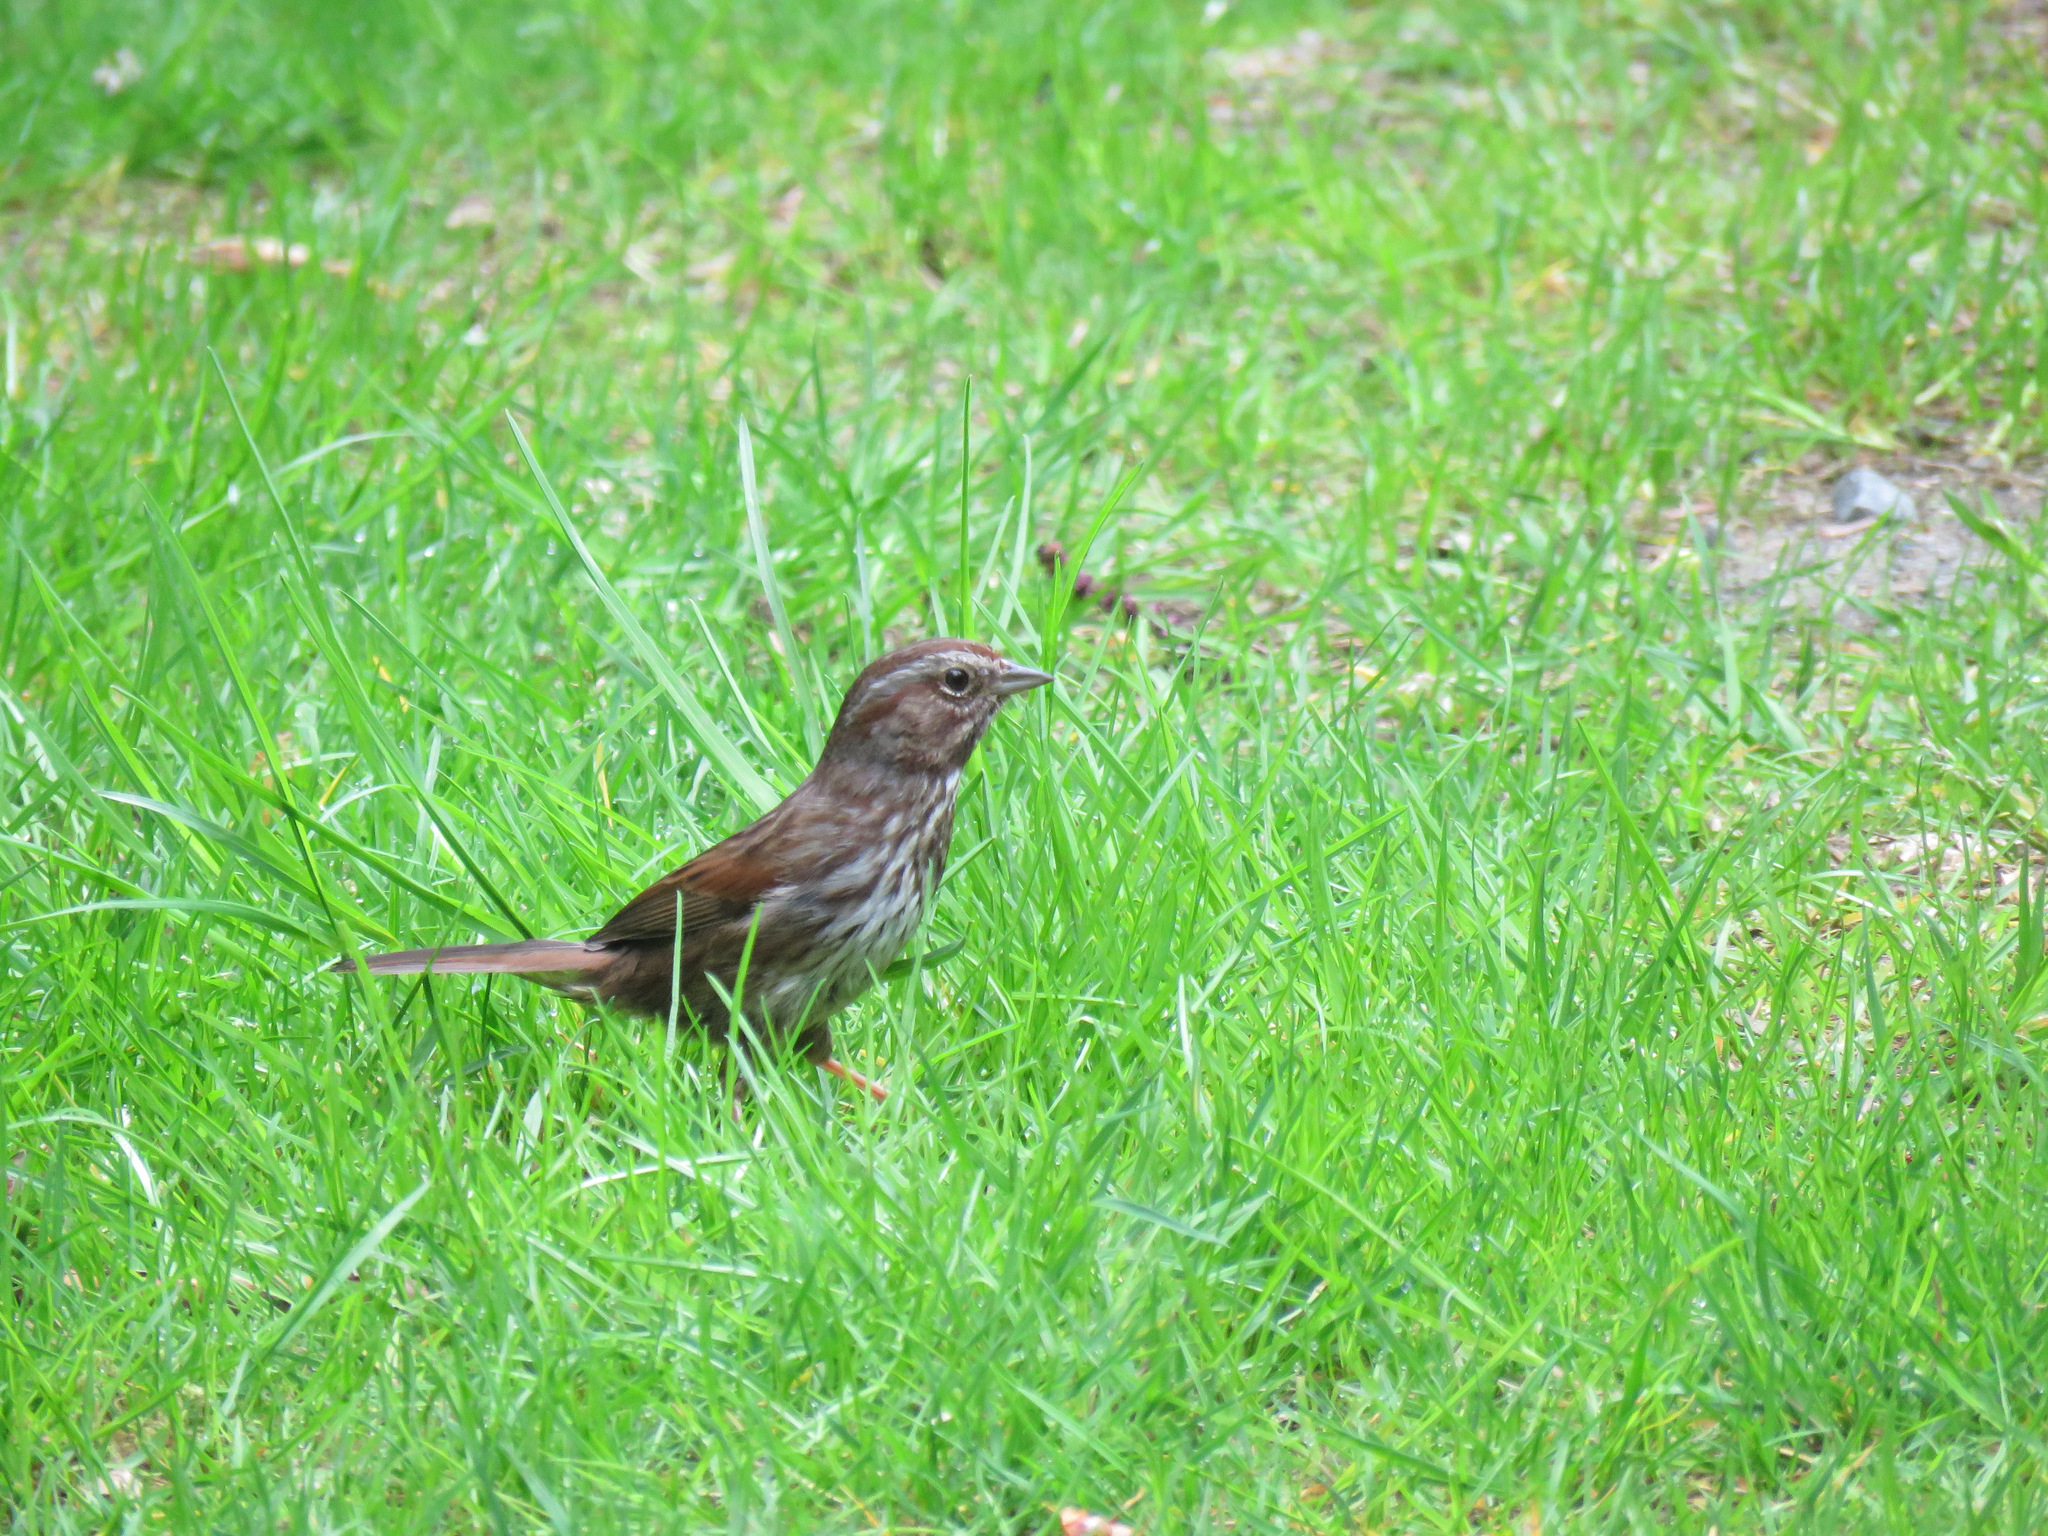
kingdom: Animalia
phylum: Chordata
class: Aves
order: Passeriformes
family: Passerellidae
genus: Melospiza
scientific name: Melospiza melodia
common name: Song sparrow
